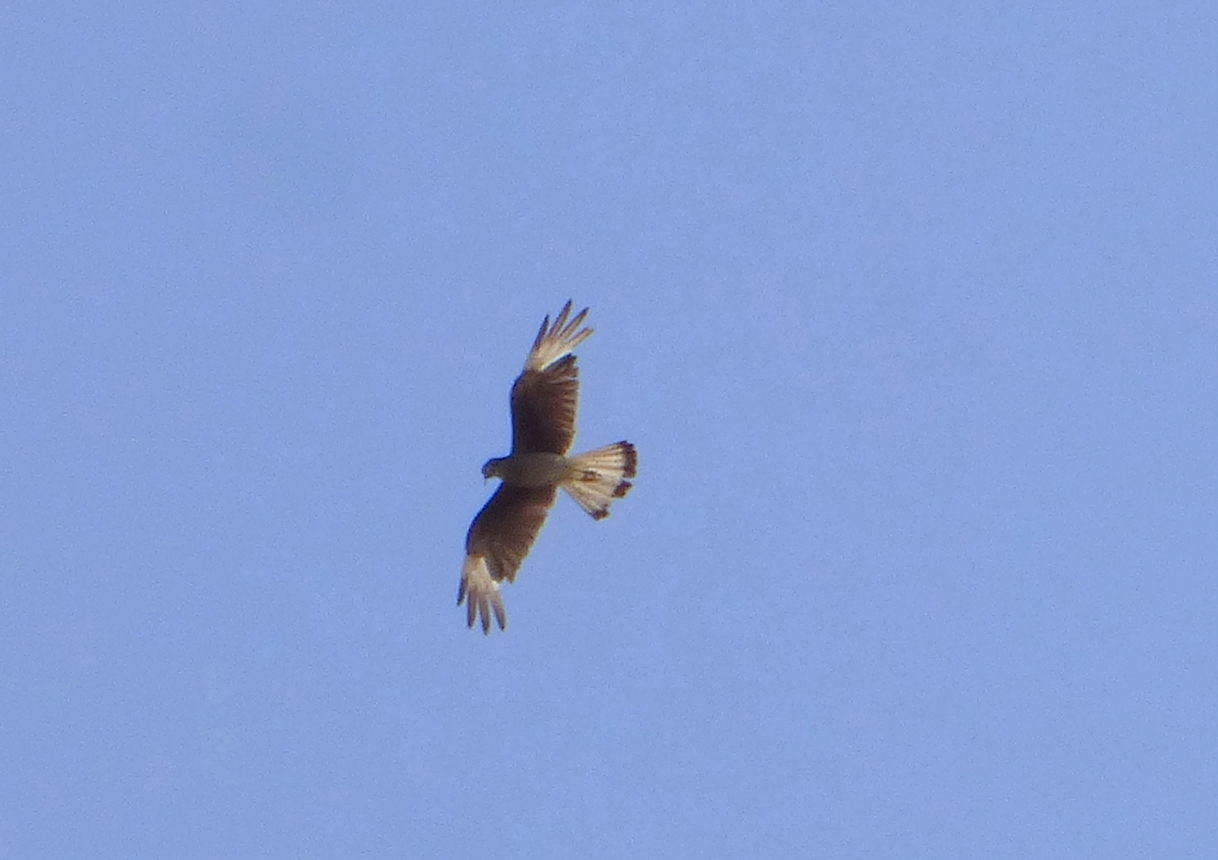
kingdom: Animalia
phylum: Chordata
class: Aves
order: Falconiformes
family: Falconidae
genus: Daptrius
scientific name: Daptrius
